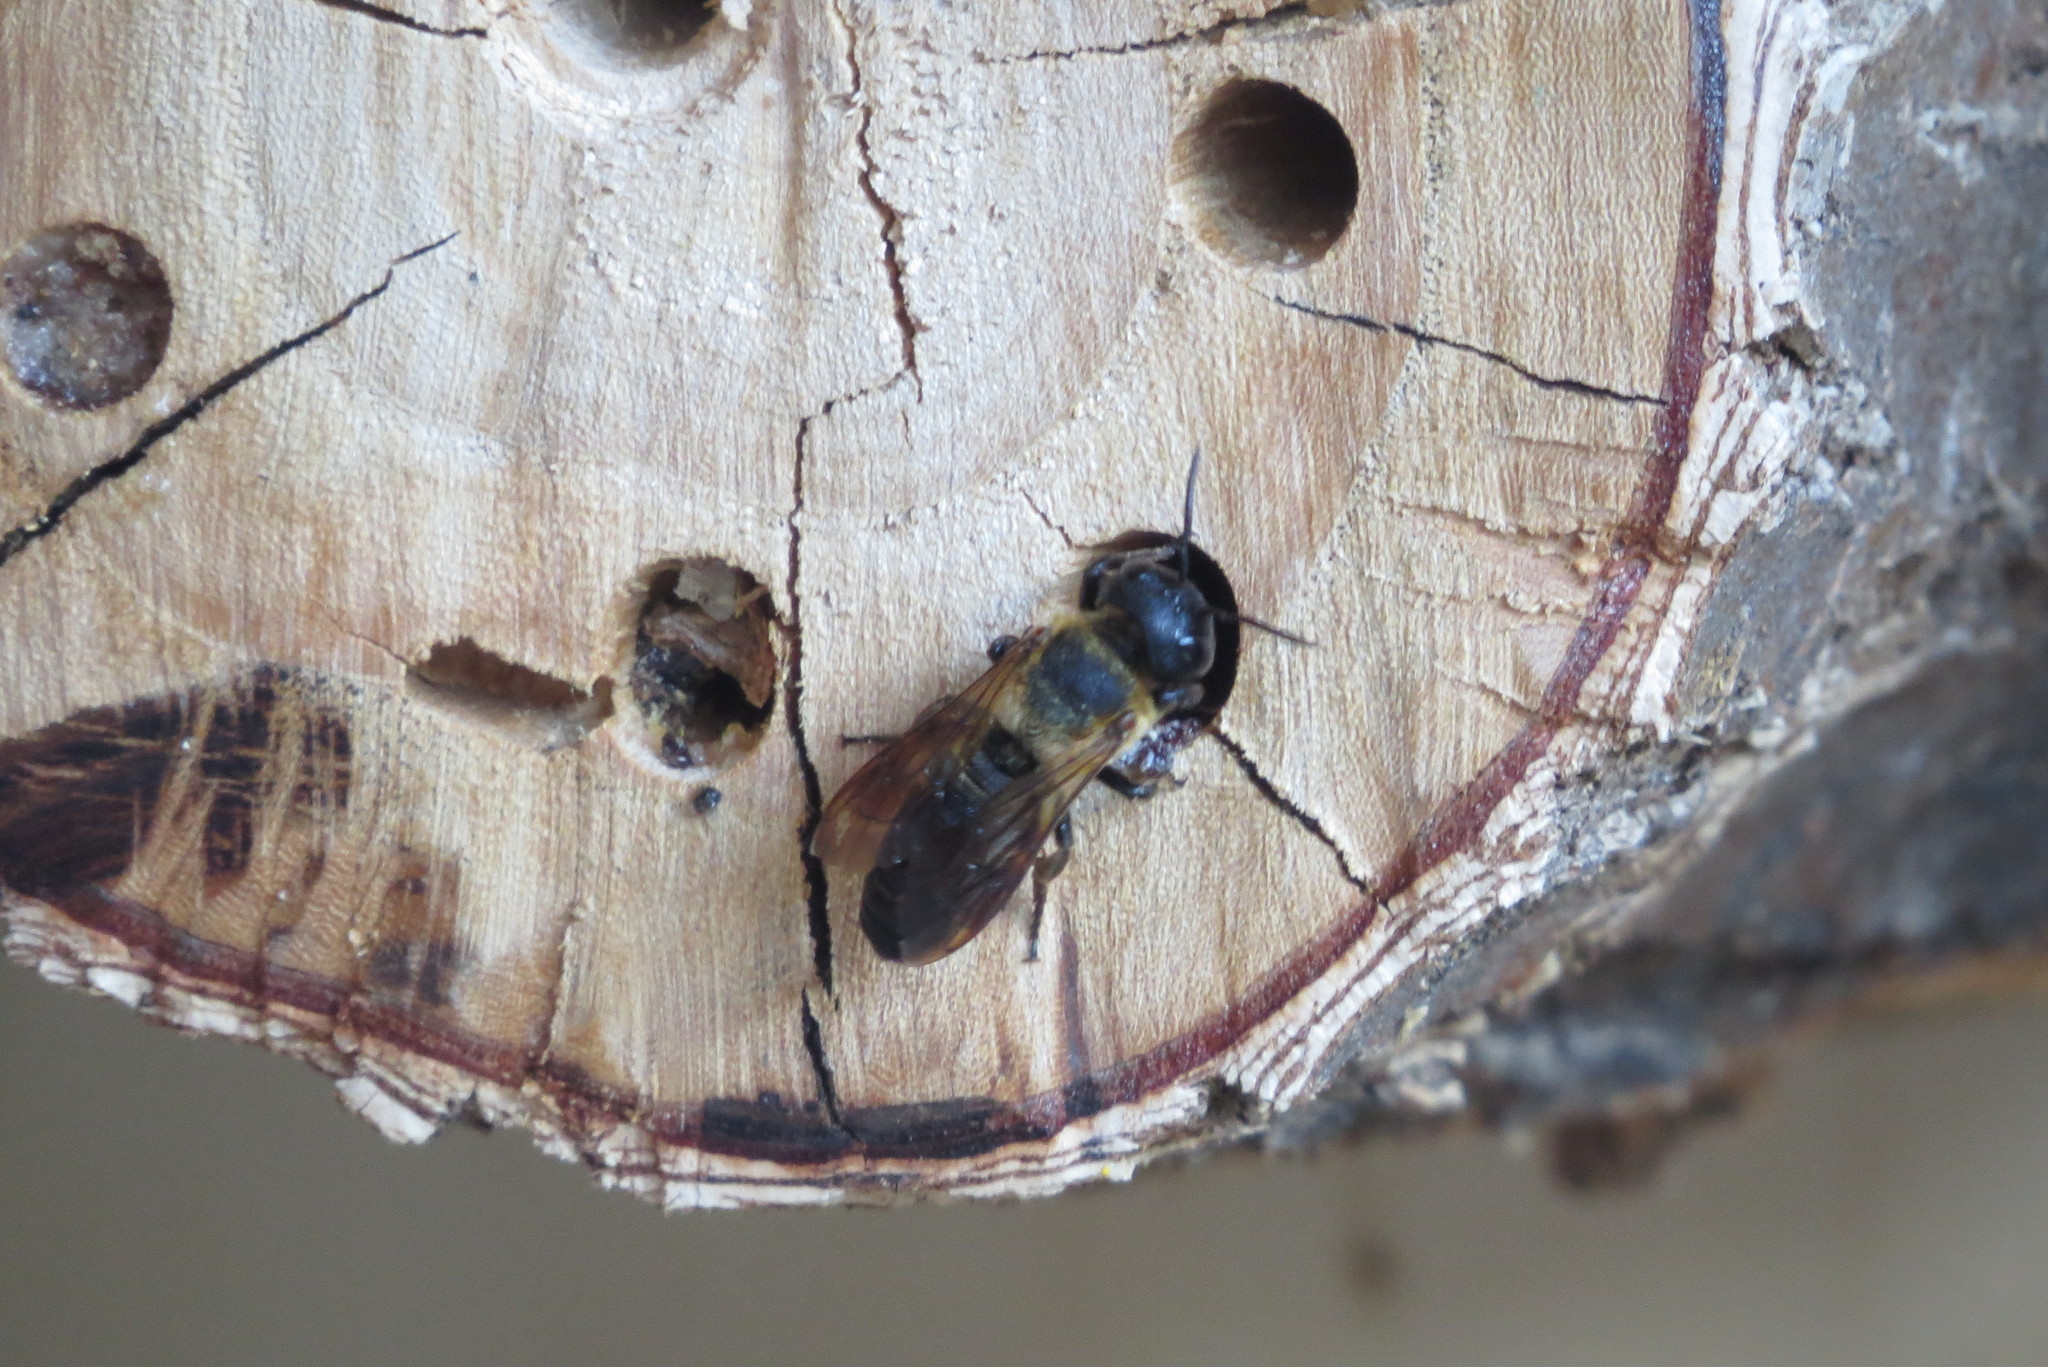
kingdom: Animalia
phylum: Arthropoda
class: Insecta
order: Hymenoptera
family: Megachilidae
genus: Megachile
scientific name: Megachile sculpturalis
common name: Sculptured resin bee
